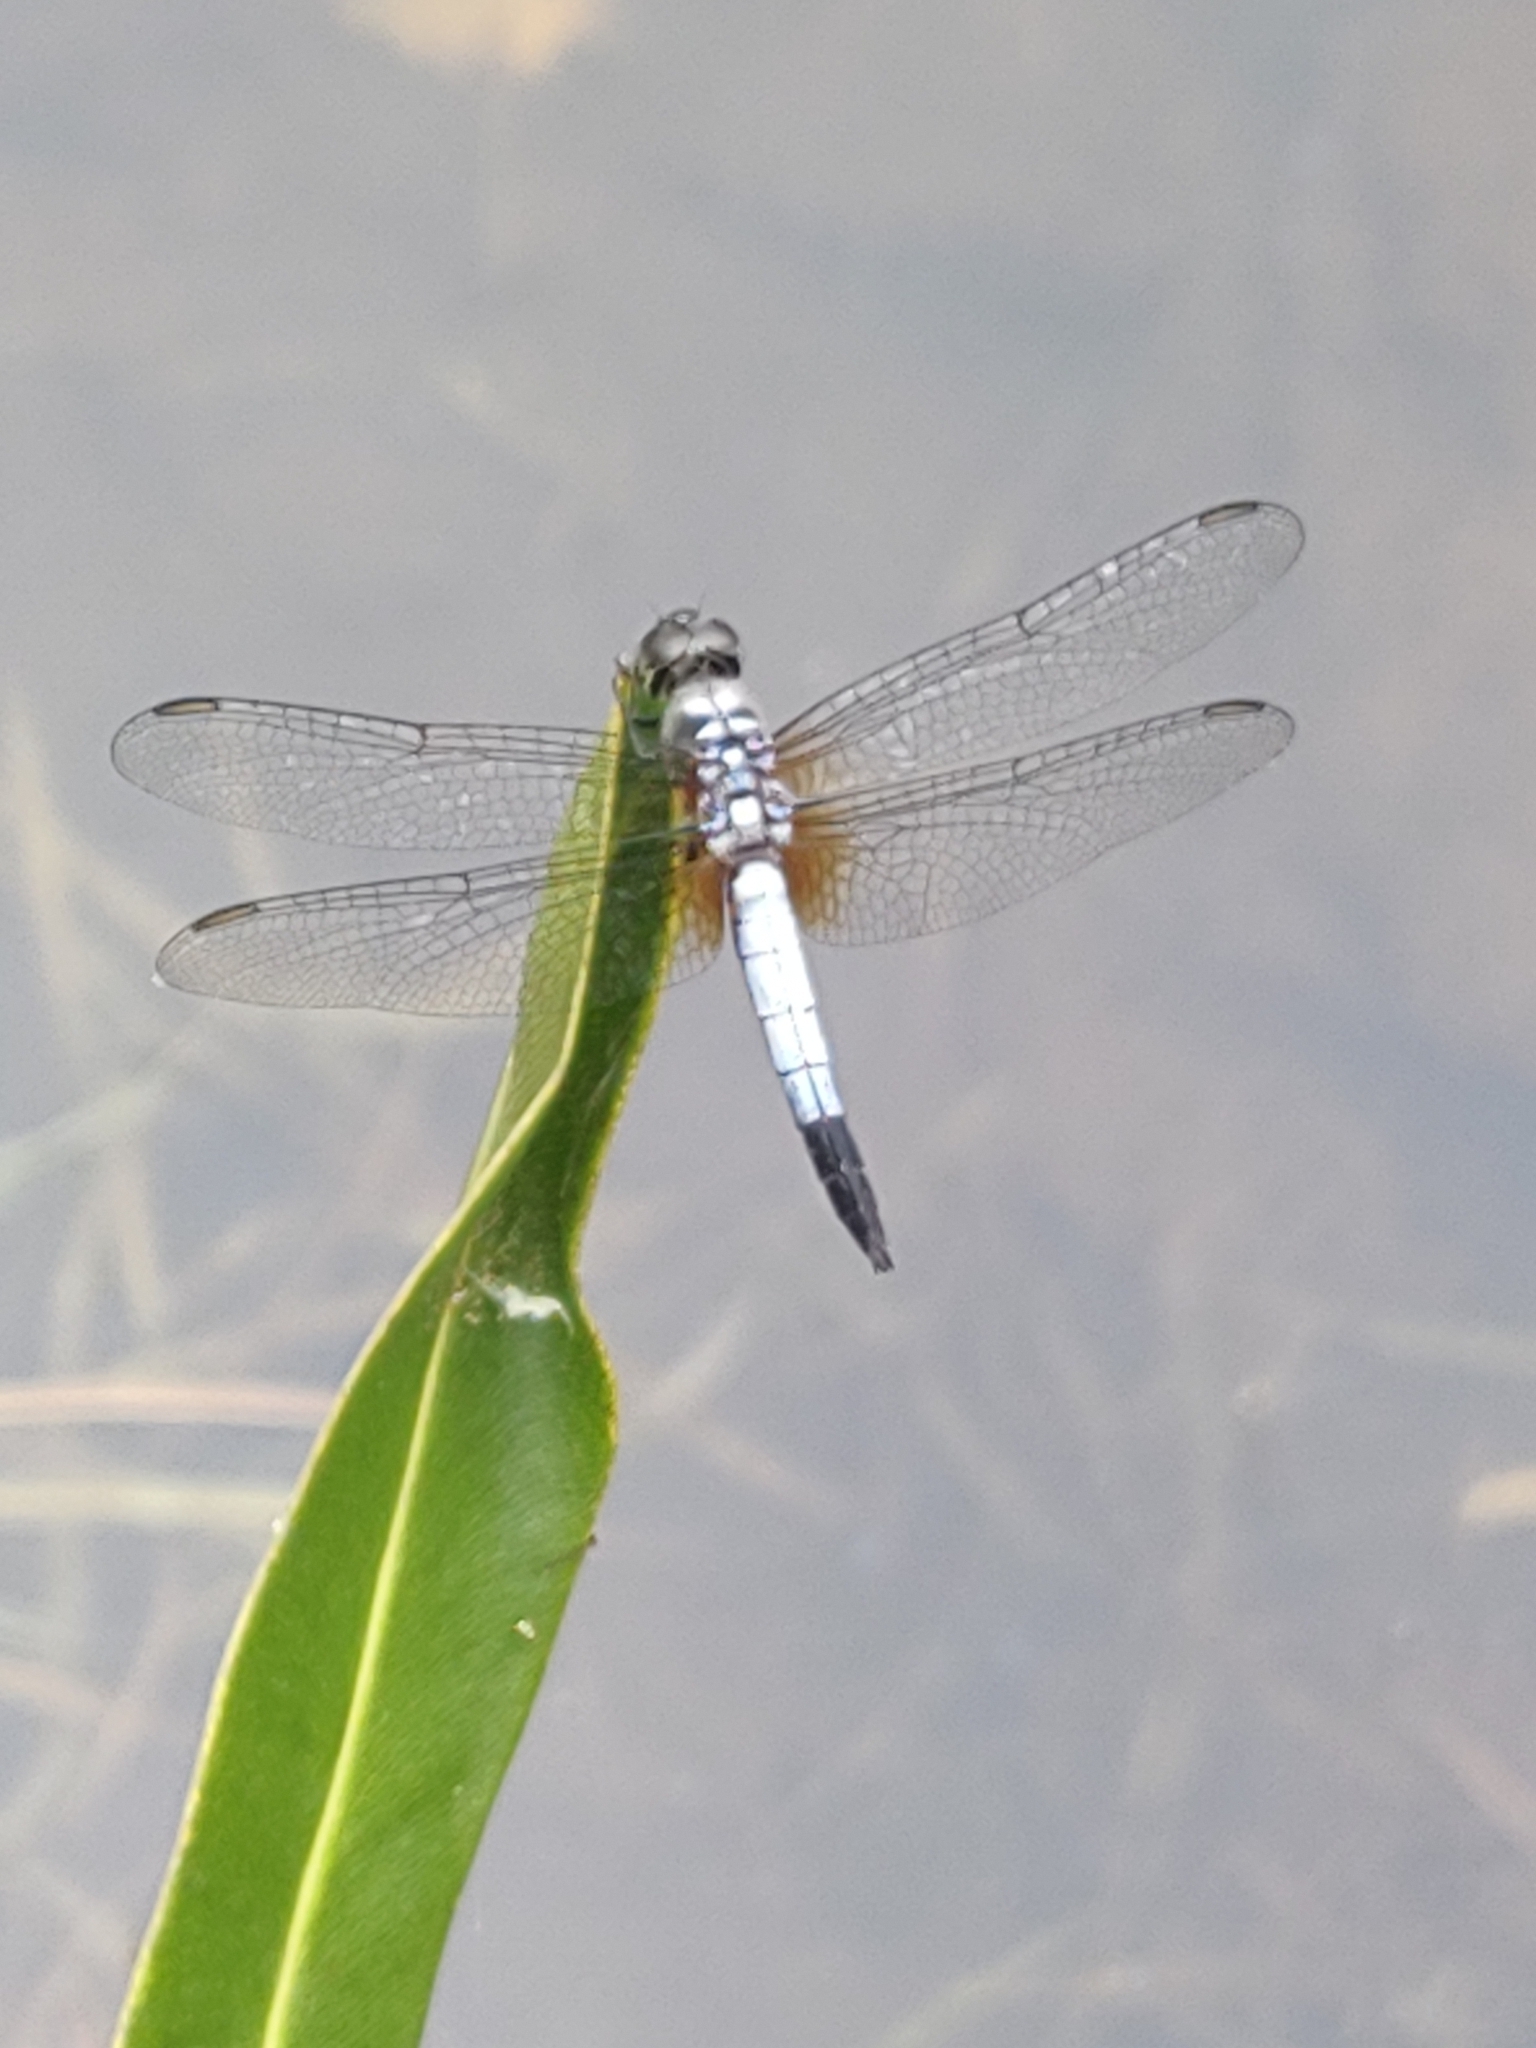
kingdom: Animalia
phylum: Arthropoda
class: Insecta
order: Odonata
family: Libellulidae
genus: Brachydiplax
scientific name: Brachydiplax chalybea
